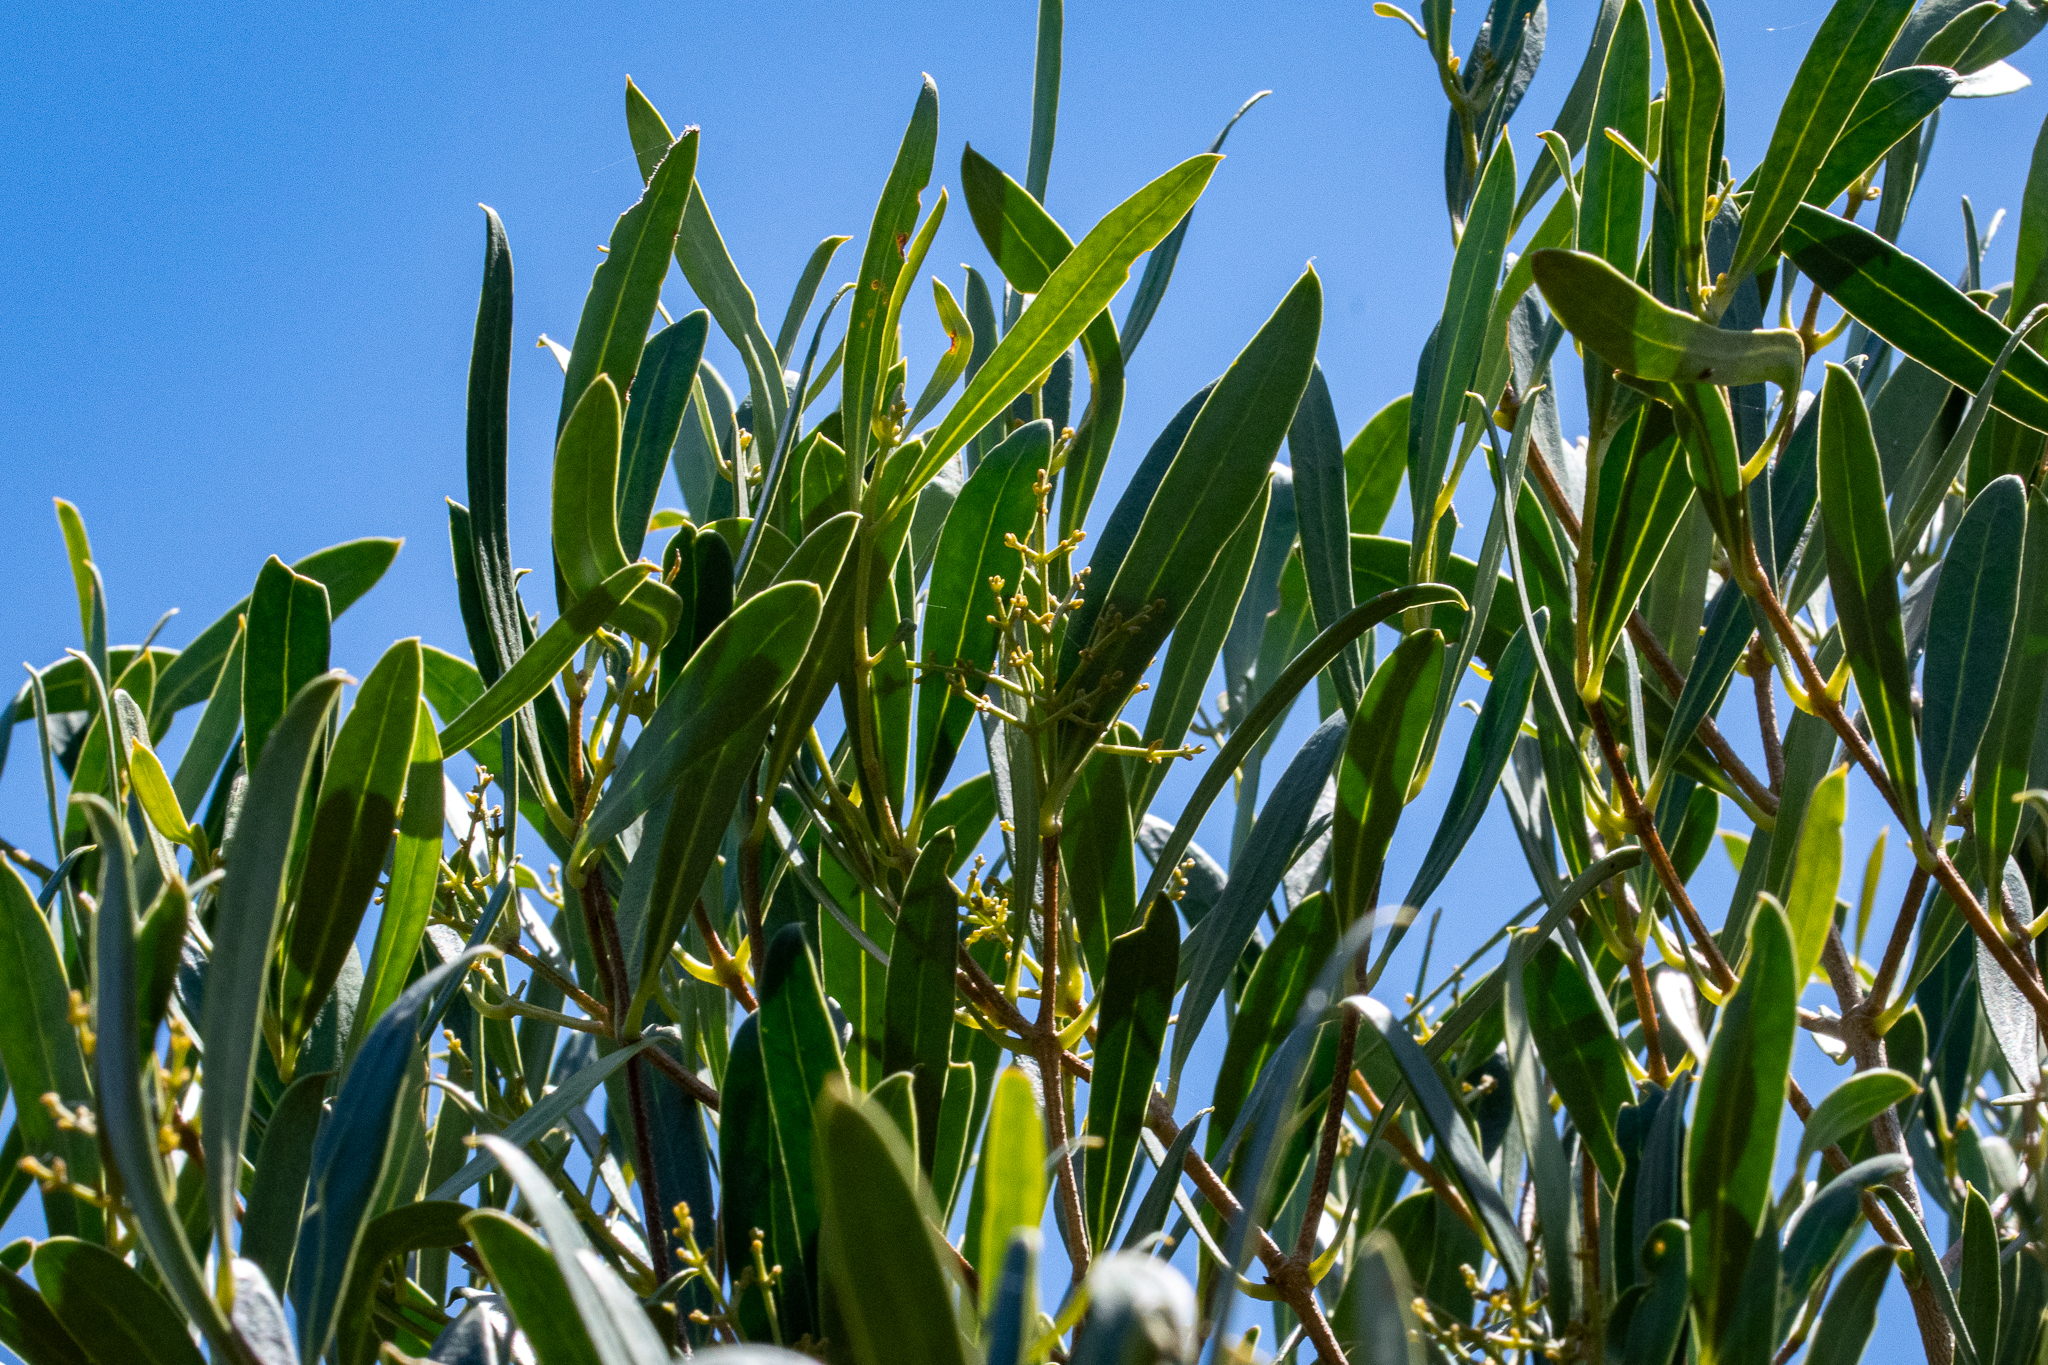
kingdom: Plantae
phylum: Tracheophyta
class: Magnoliopsida
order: Lamiales
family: Oleaceae
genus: Olea
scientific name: Olea exasperata
